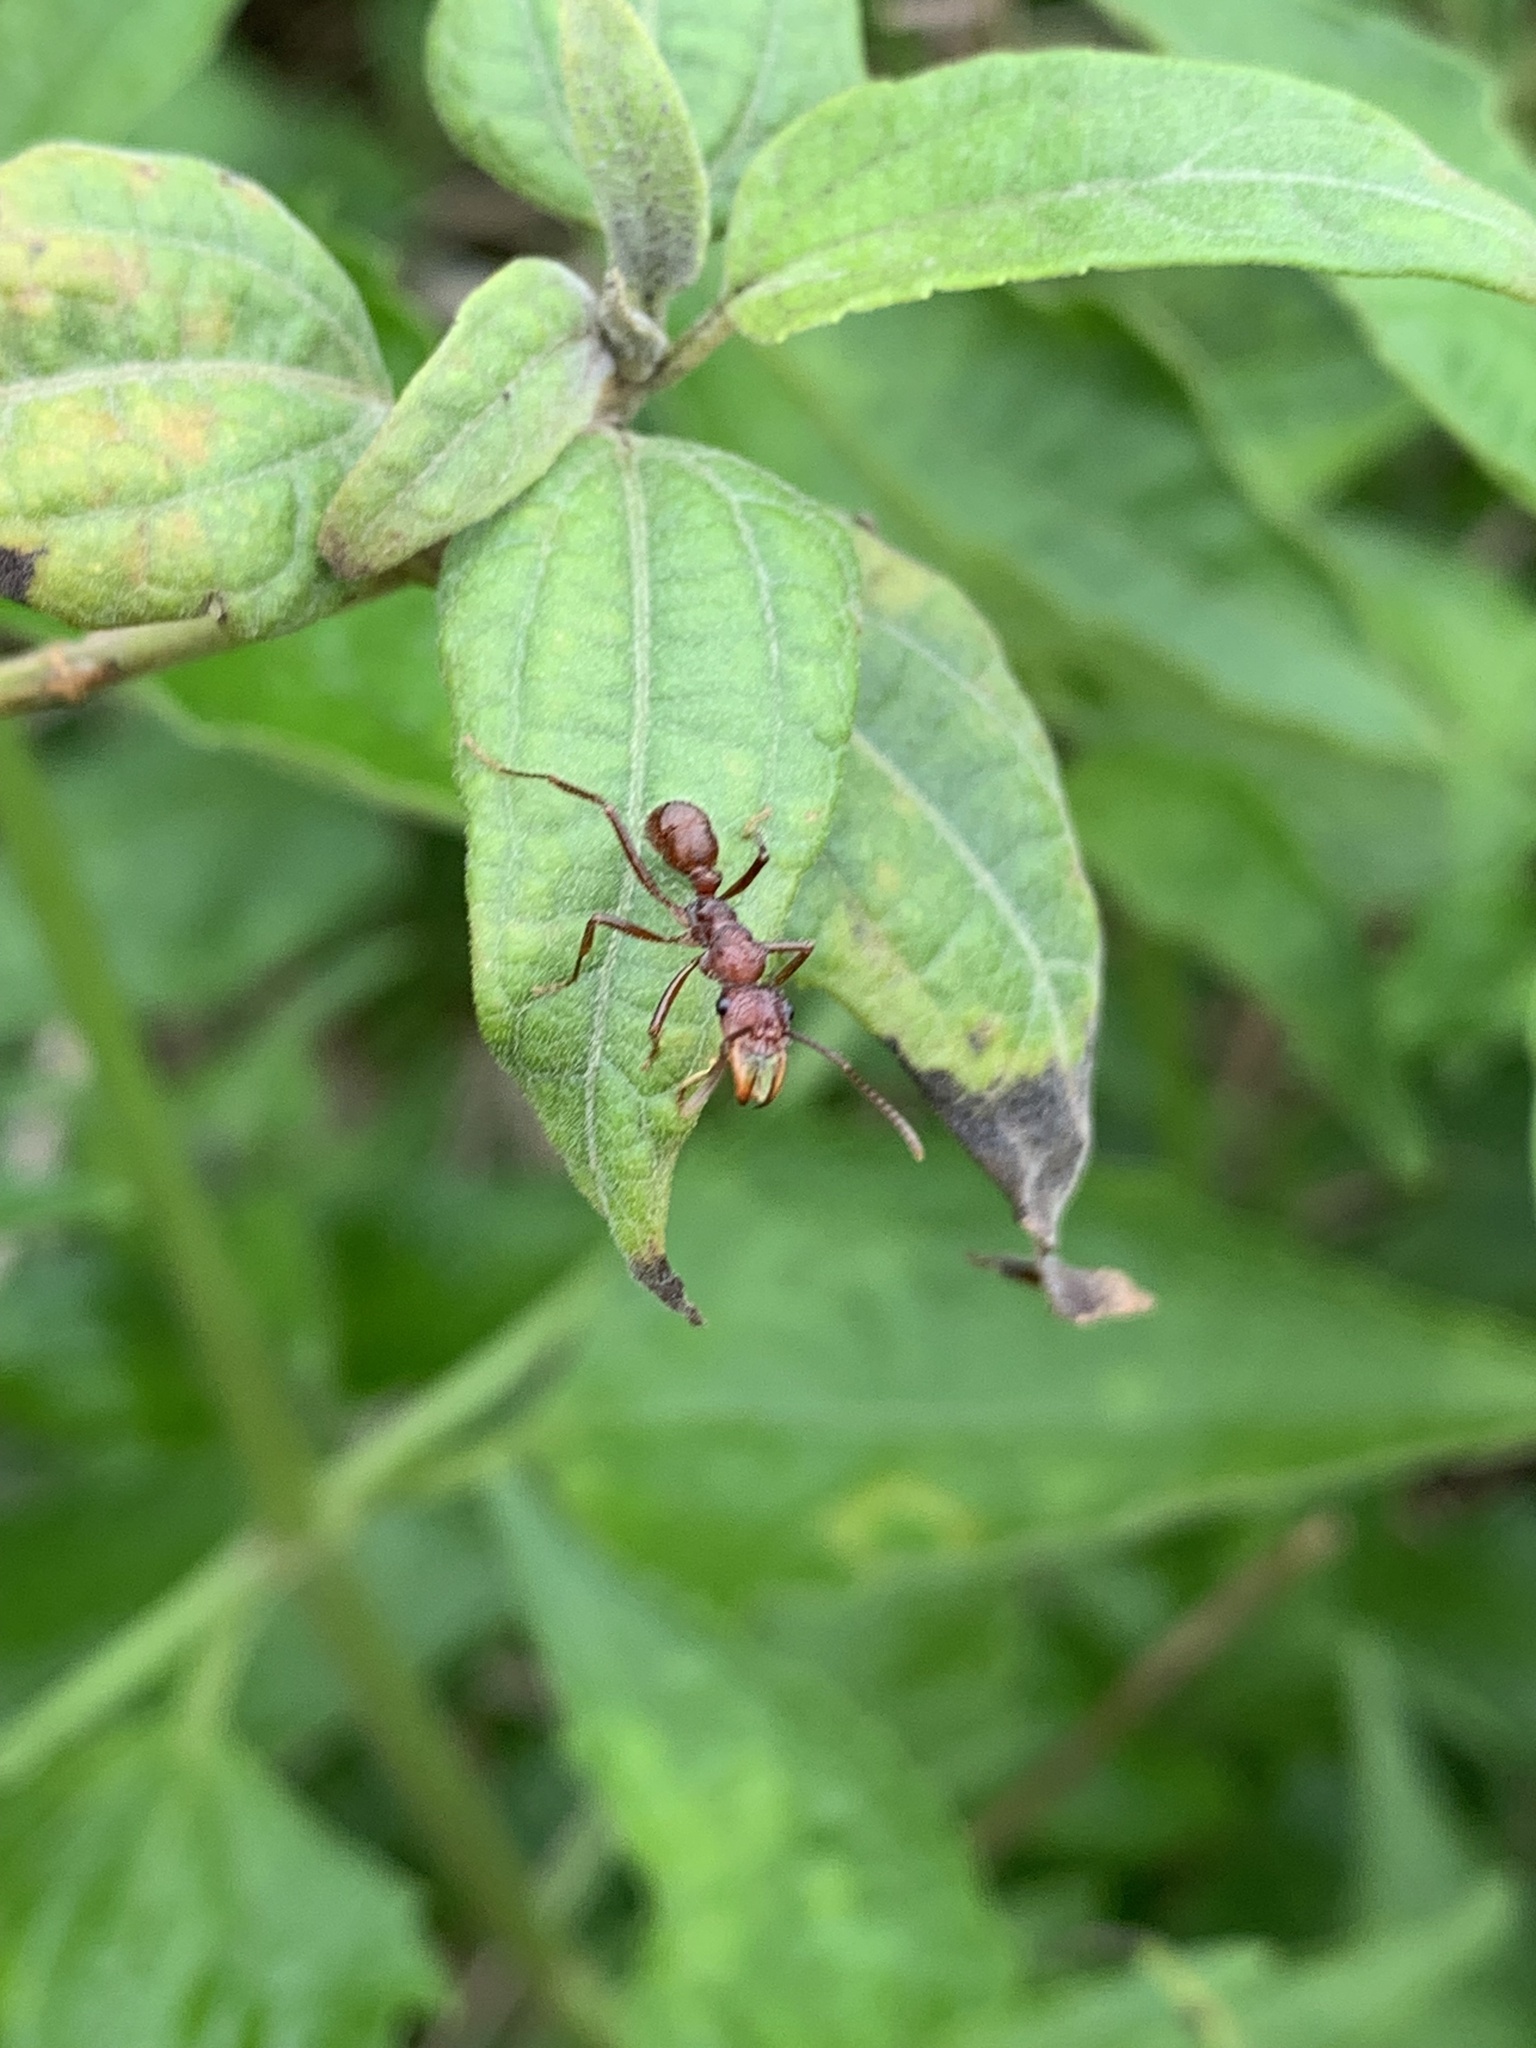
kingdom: Animalia
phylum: Arthropoda
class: Insecta
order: Hymenoptera
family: Formicidae
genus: Ectatomma
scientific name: Ectatomma tuberculatum
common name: Ant
